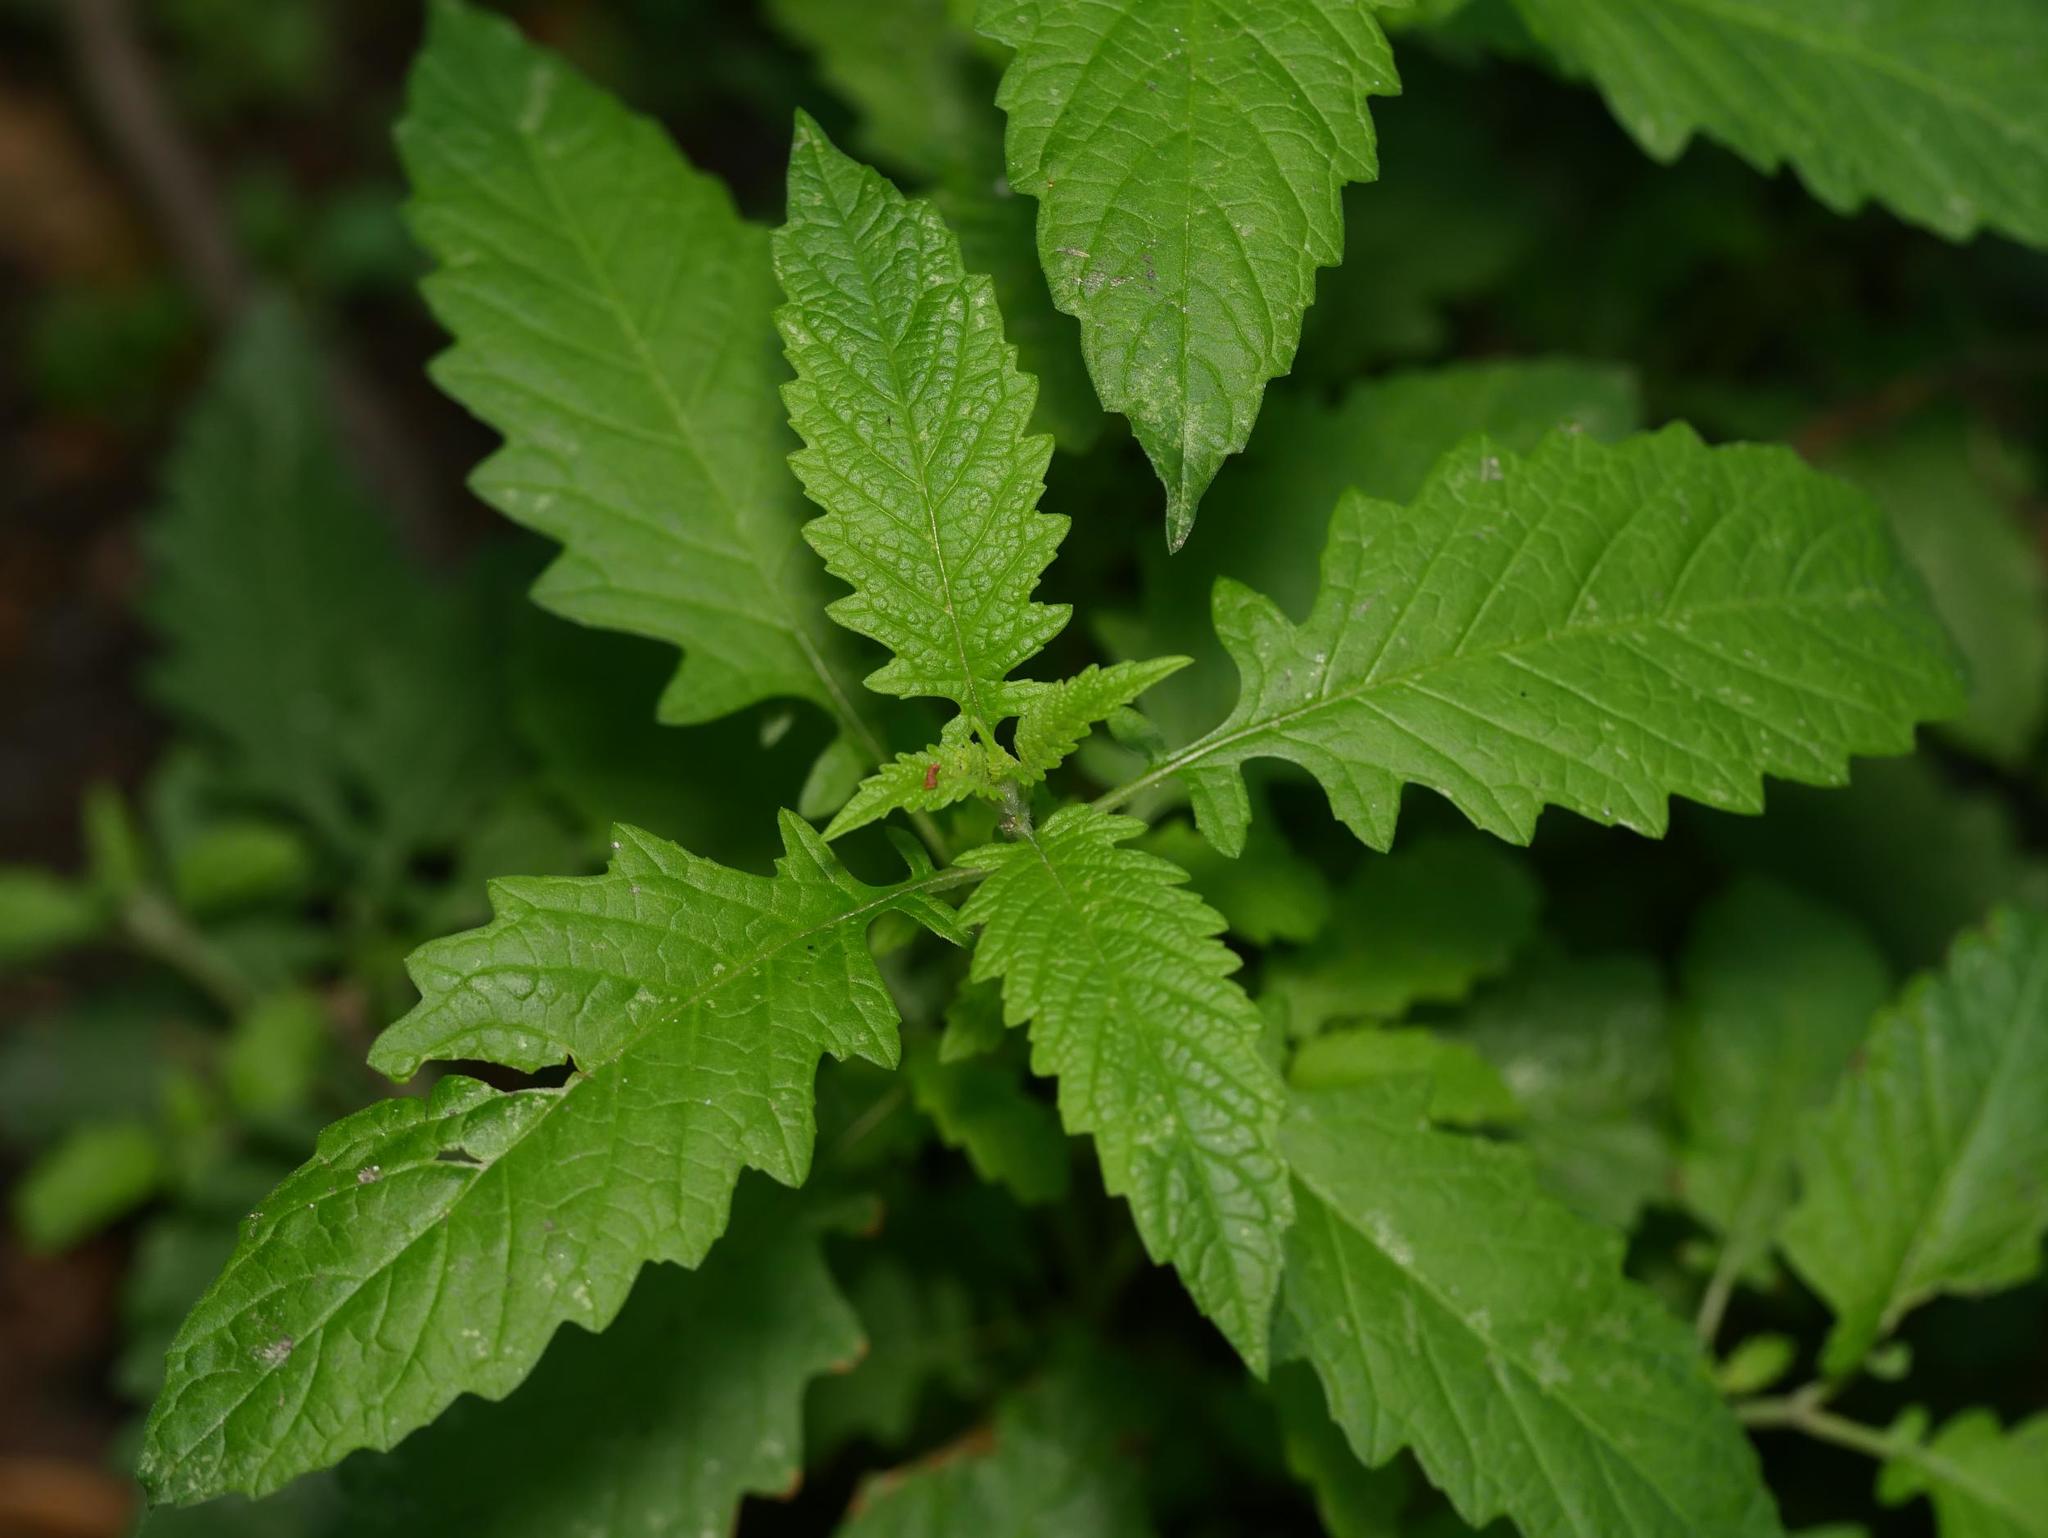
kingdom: Plantae
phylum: Tracheophyta
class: Magnoliopsida
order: Lamiales
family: Lamiaceae
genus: Lycopus
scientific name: Lycopus europaeus
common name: European bugleweed
